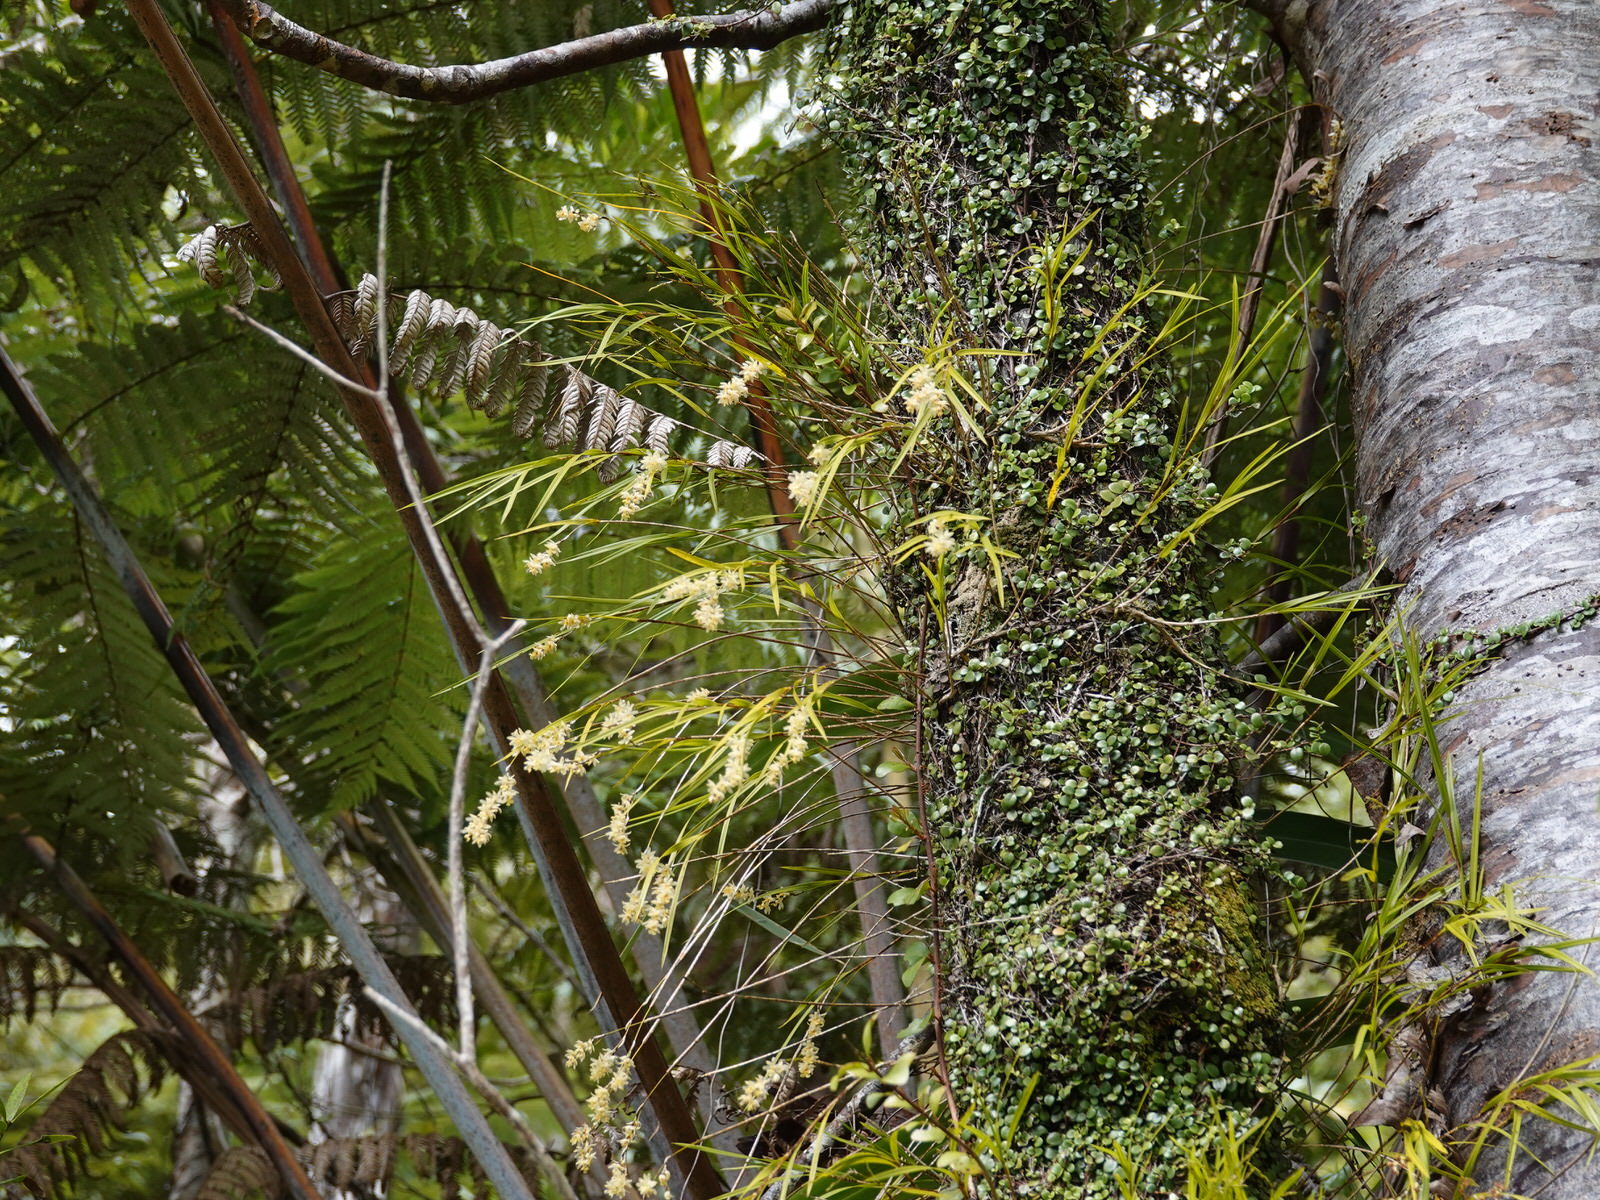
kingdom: Plantae
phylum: Tracheophyta
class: Liliopsida
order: Asparagales
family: Orchidaceae
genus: Earina
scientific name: Earina mucronata
